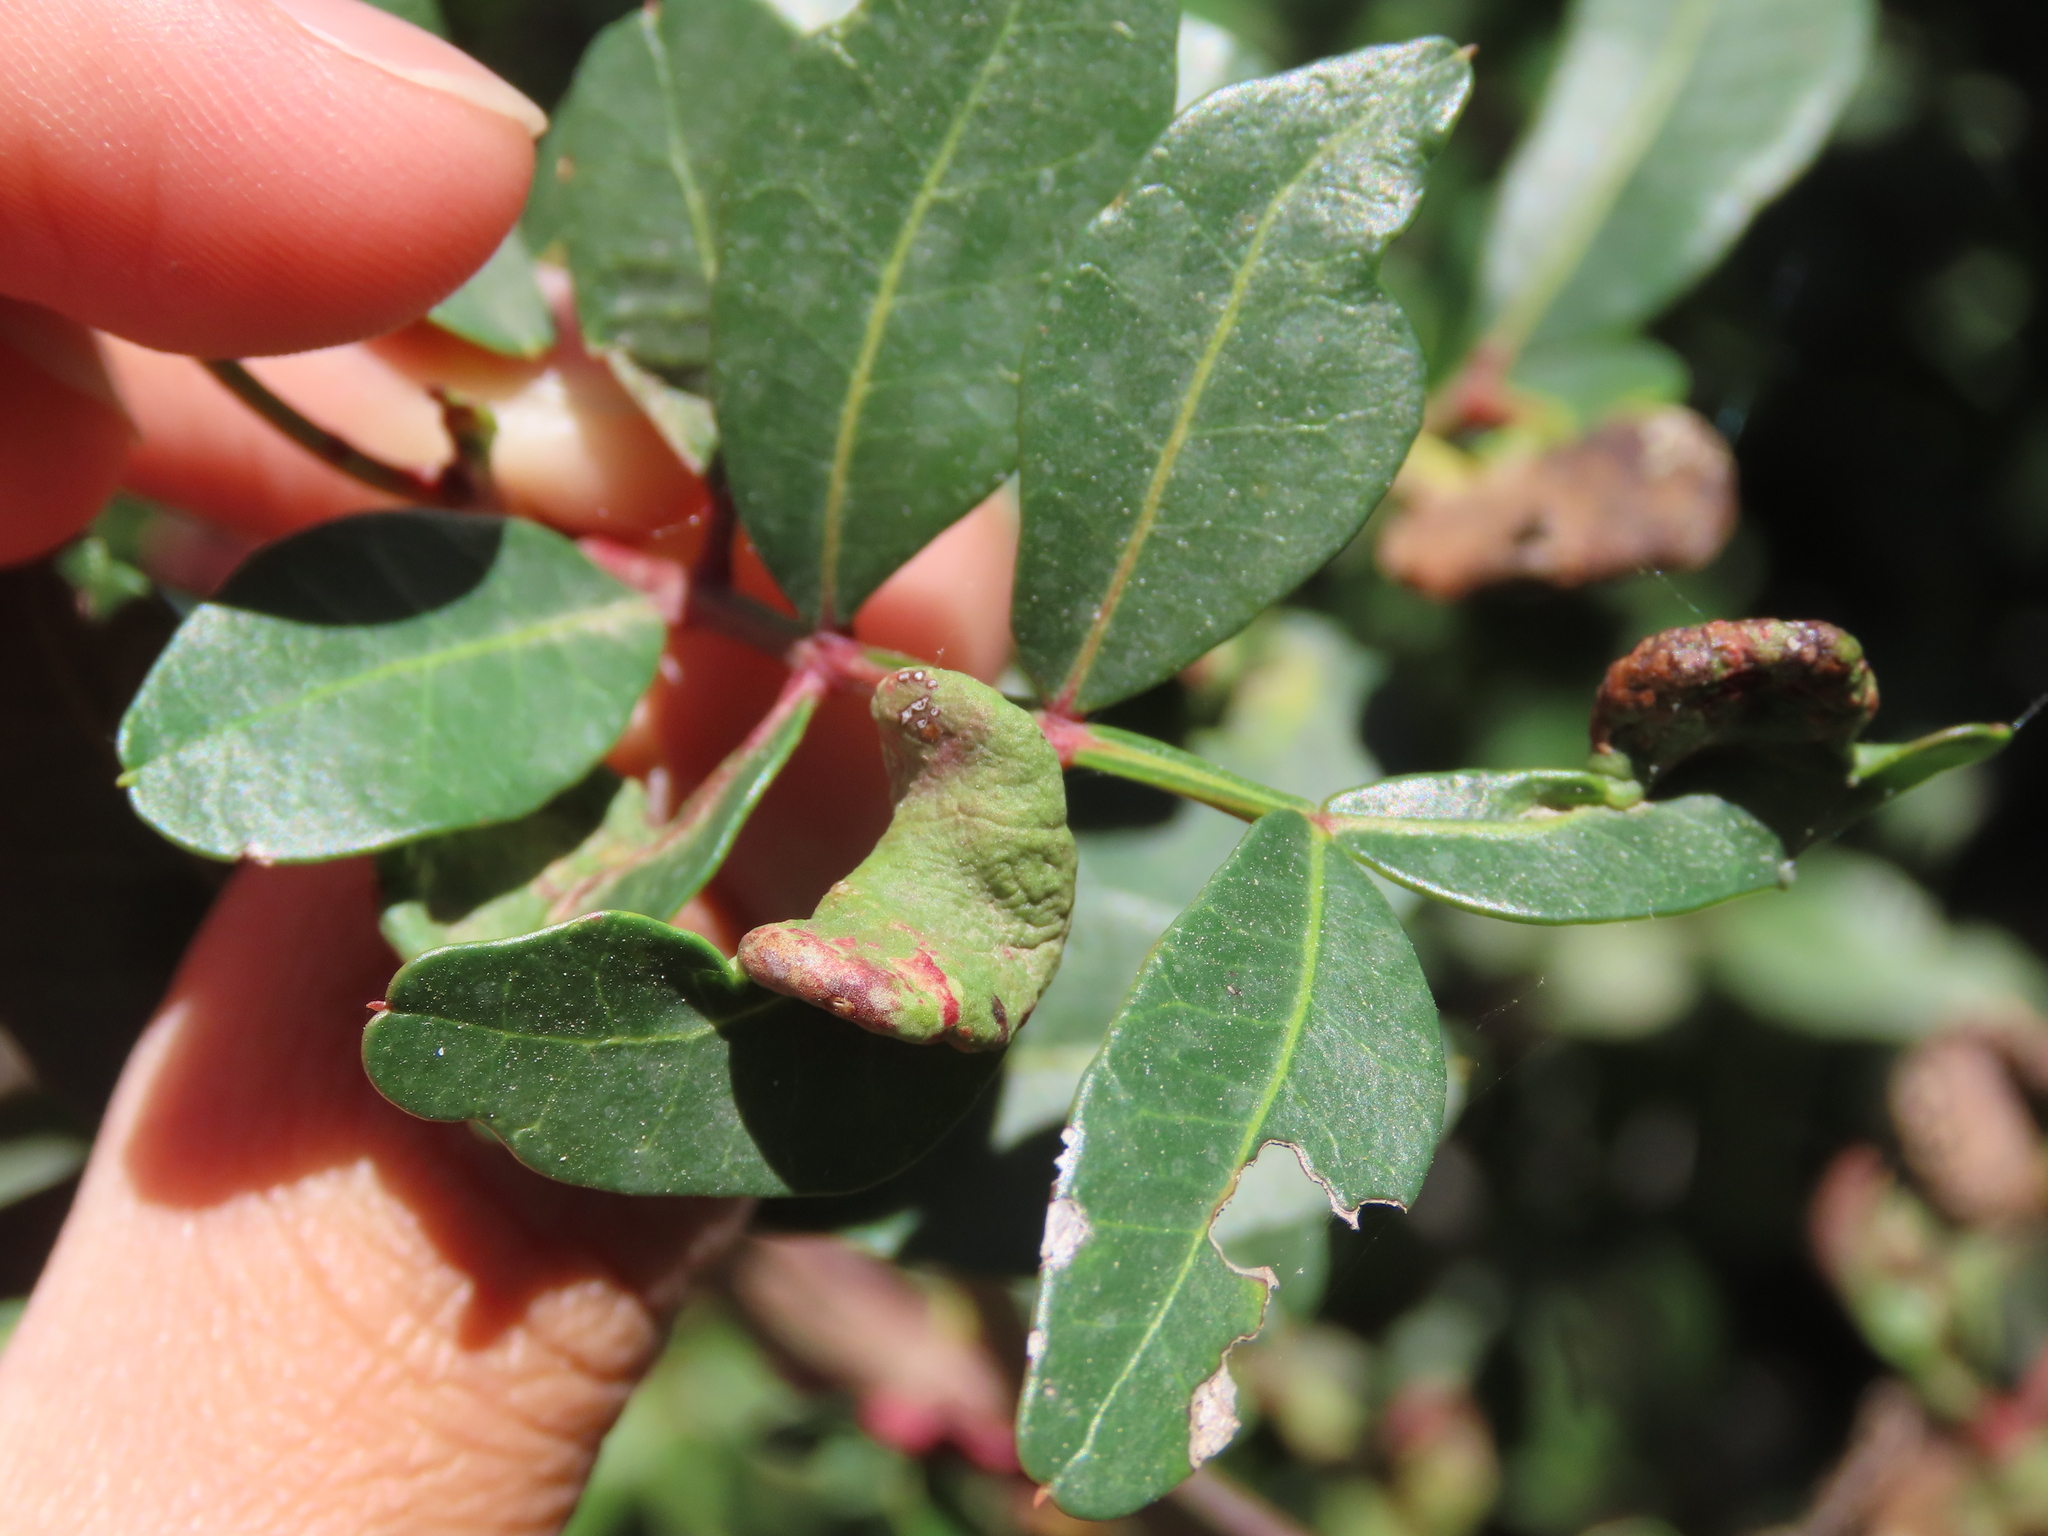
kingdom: Animalia
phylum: Arthropoda
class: Insecta
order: Hemiptera
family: Aphididae
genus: Aploneura
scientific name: Aploneura lentisci
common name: Mealy grass root aphid
